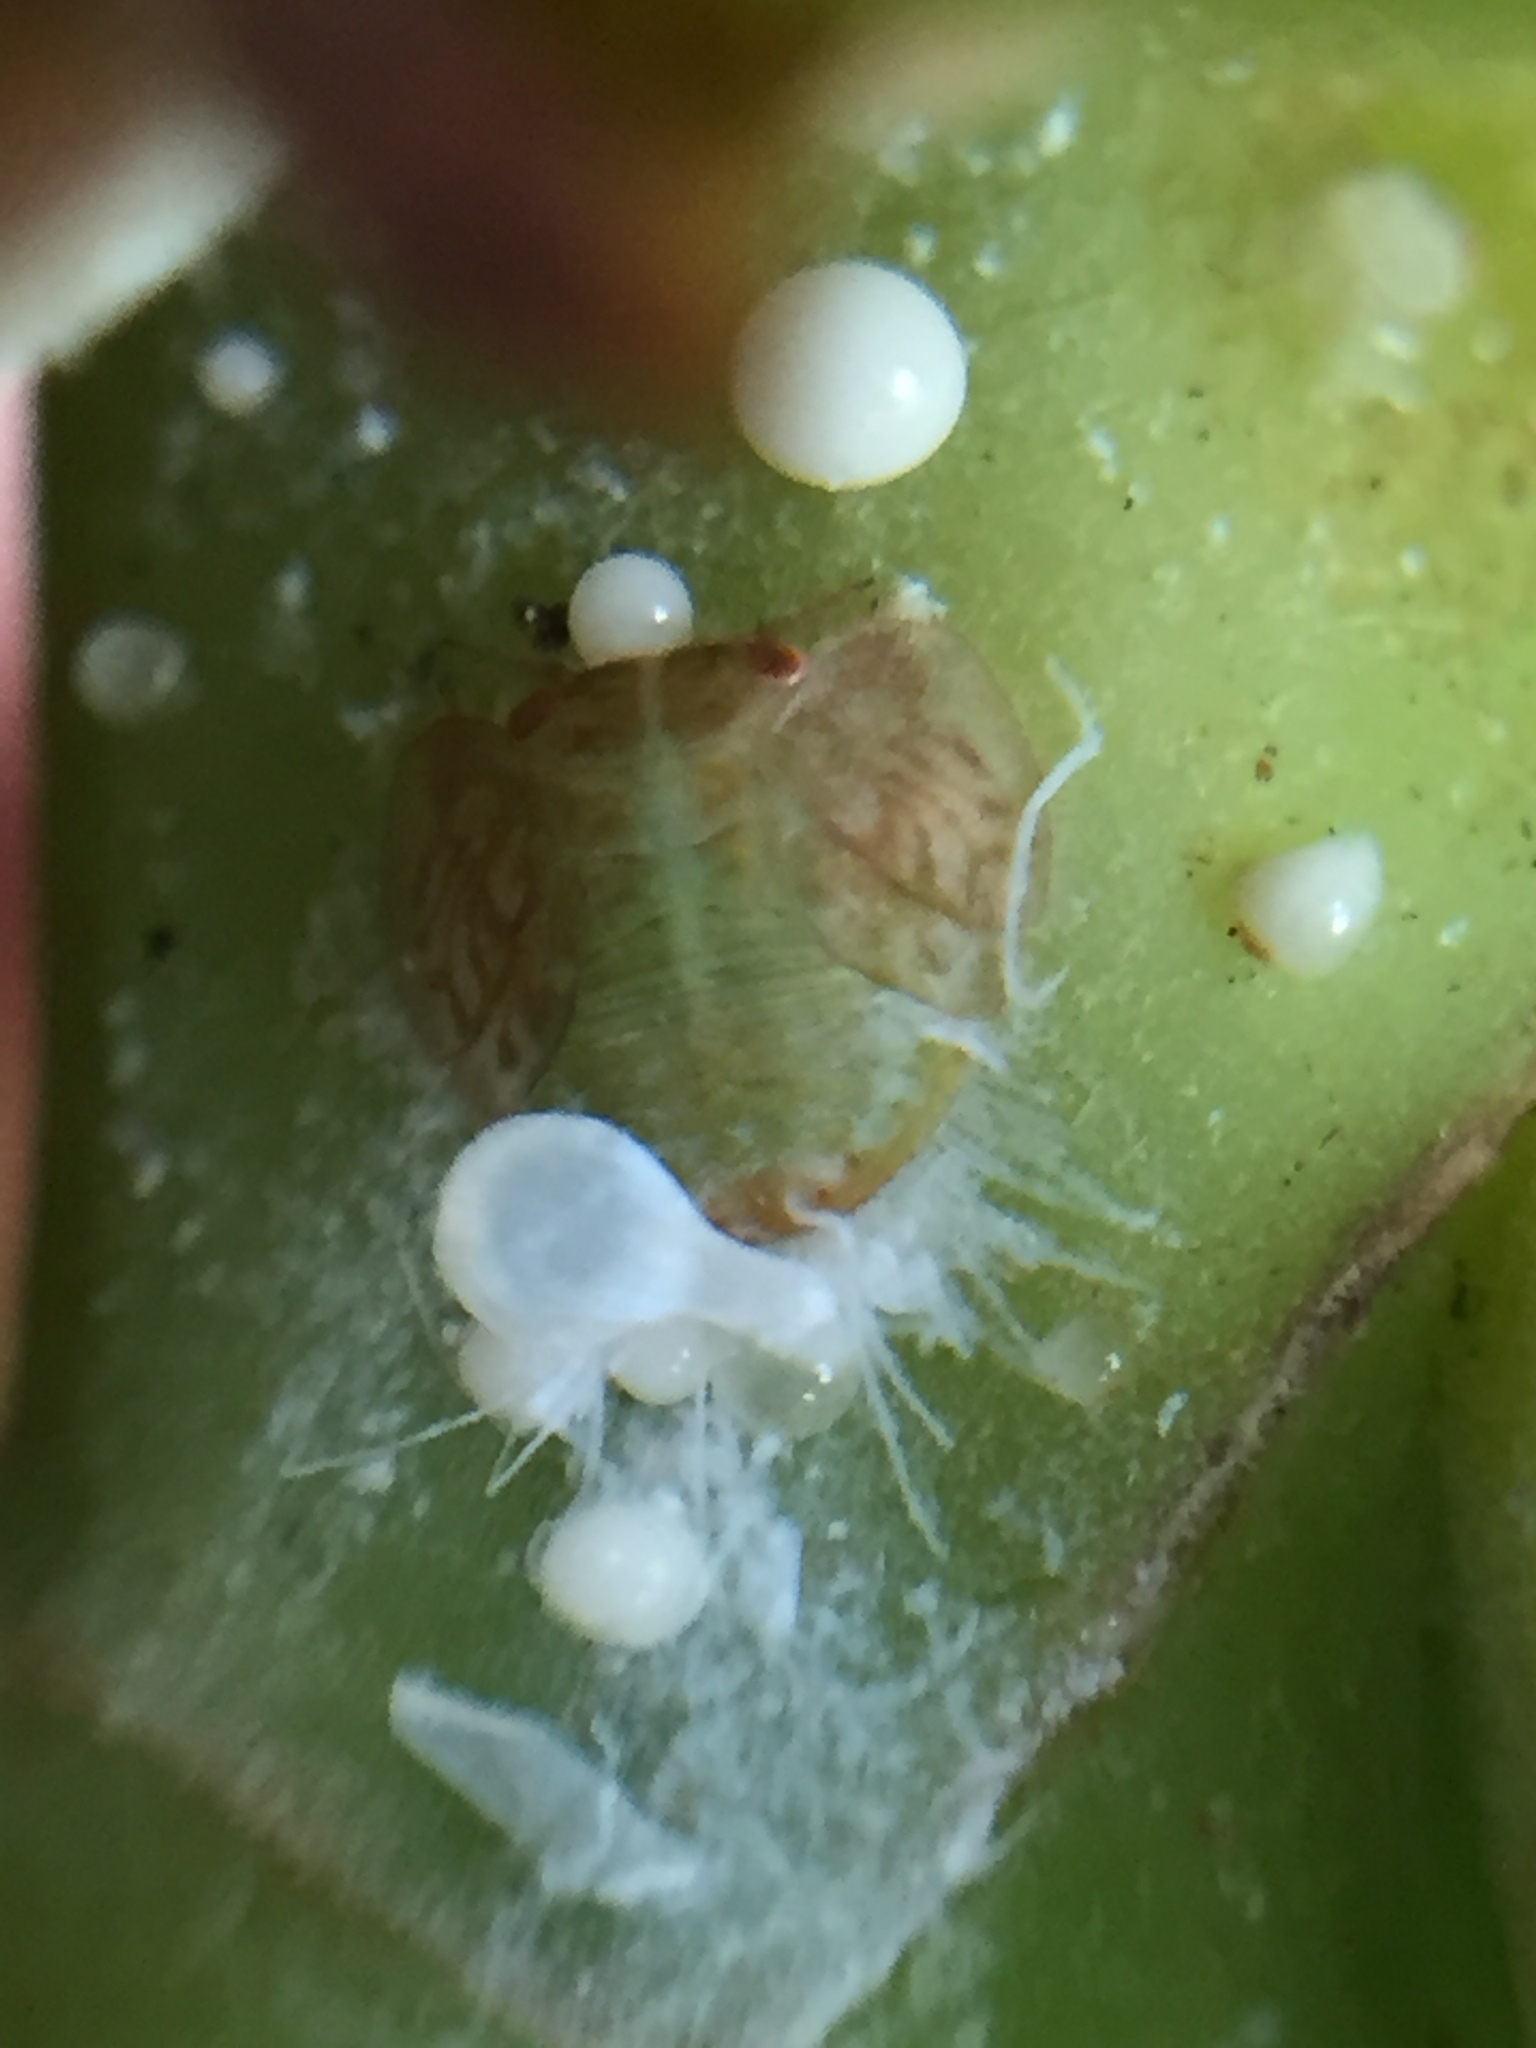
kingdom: Animalia
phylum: Arthropoda
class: Insecta
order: Hemiptera
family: Homotomidae
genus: Mycopsylla
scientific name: Mycopsylla obliqua
